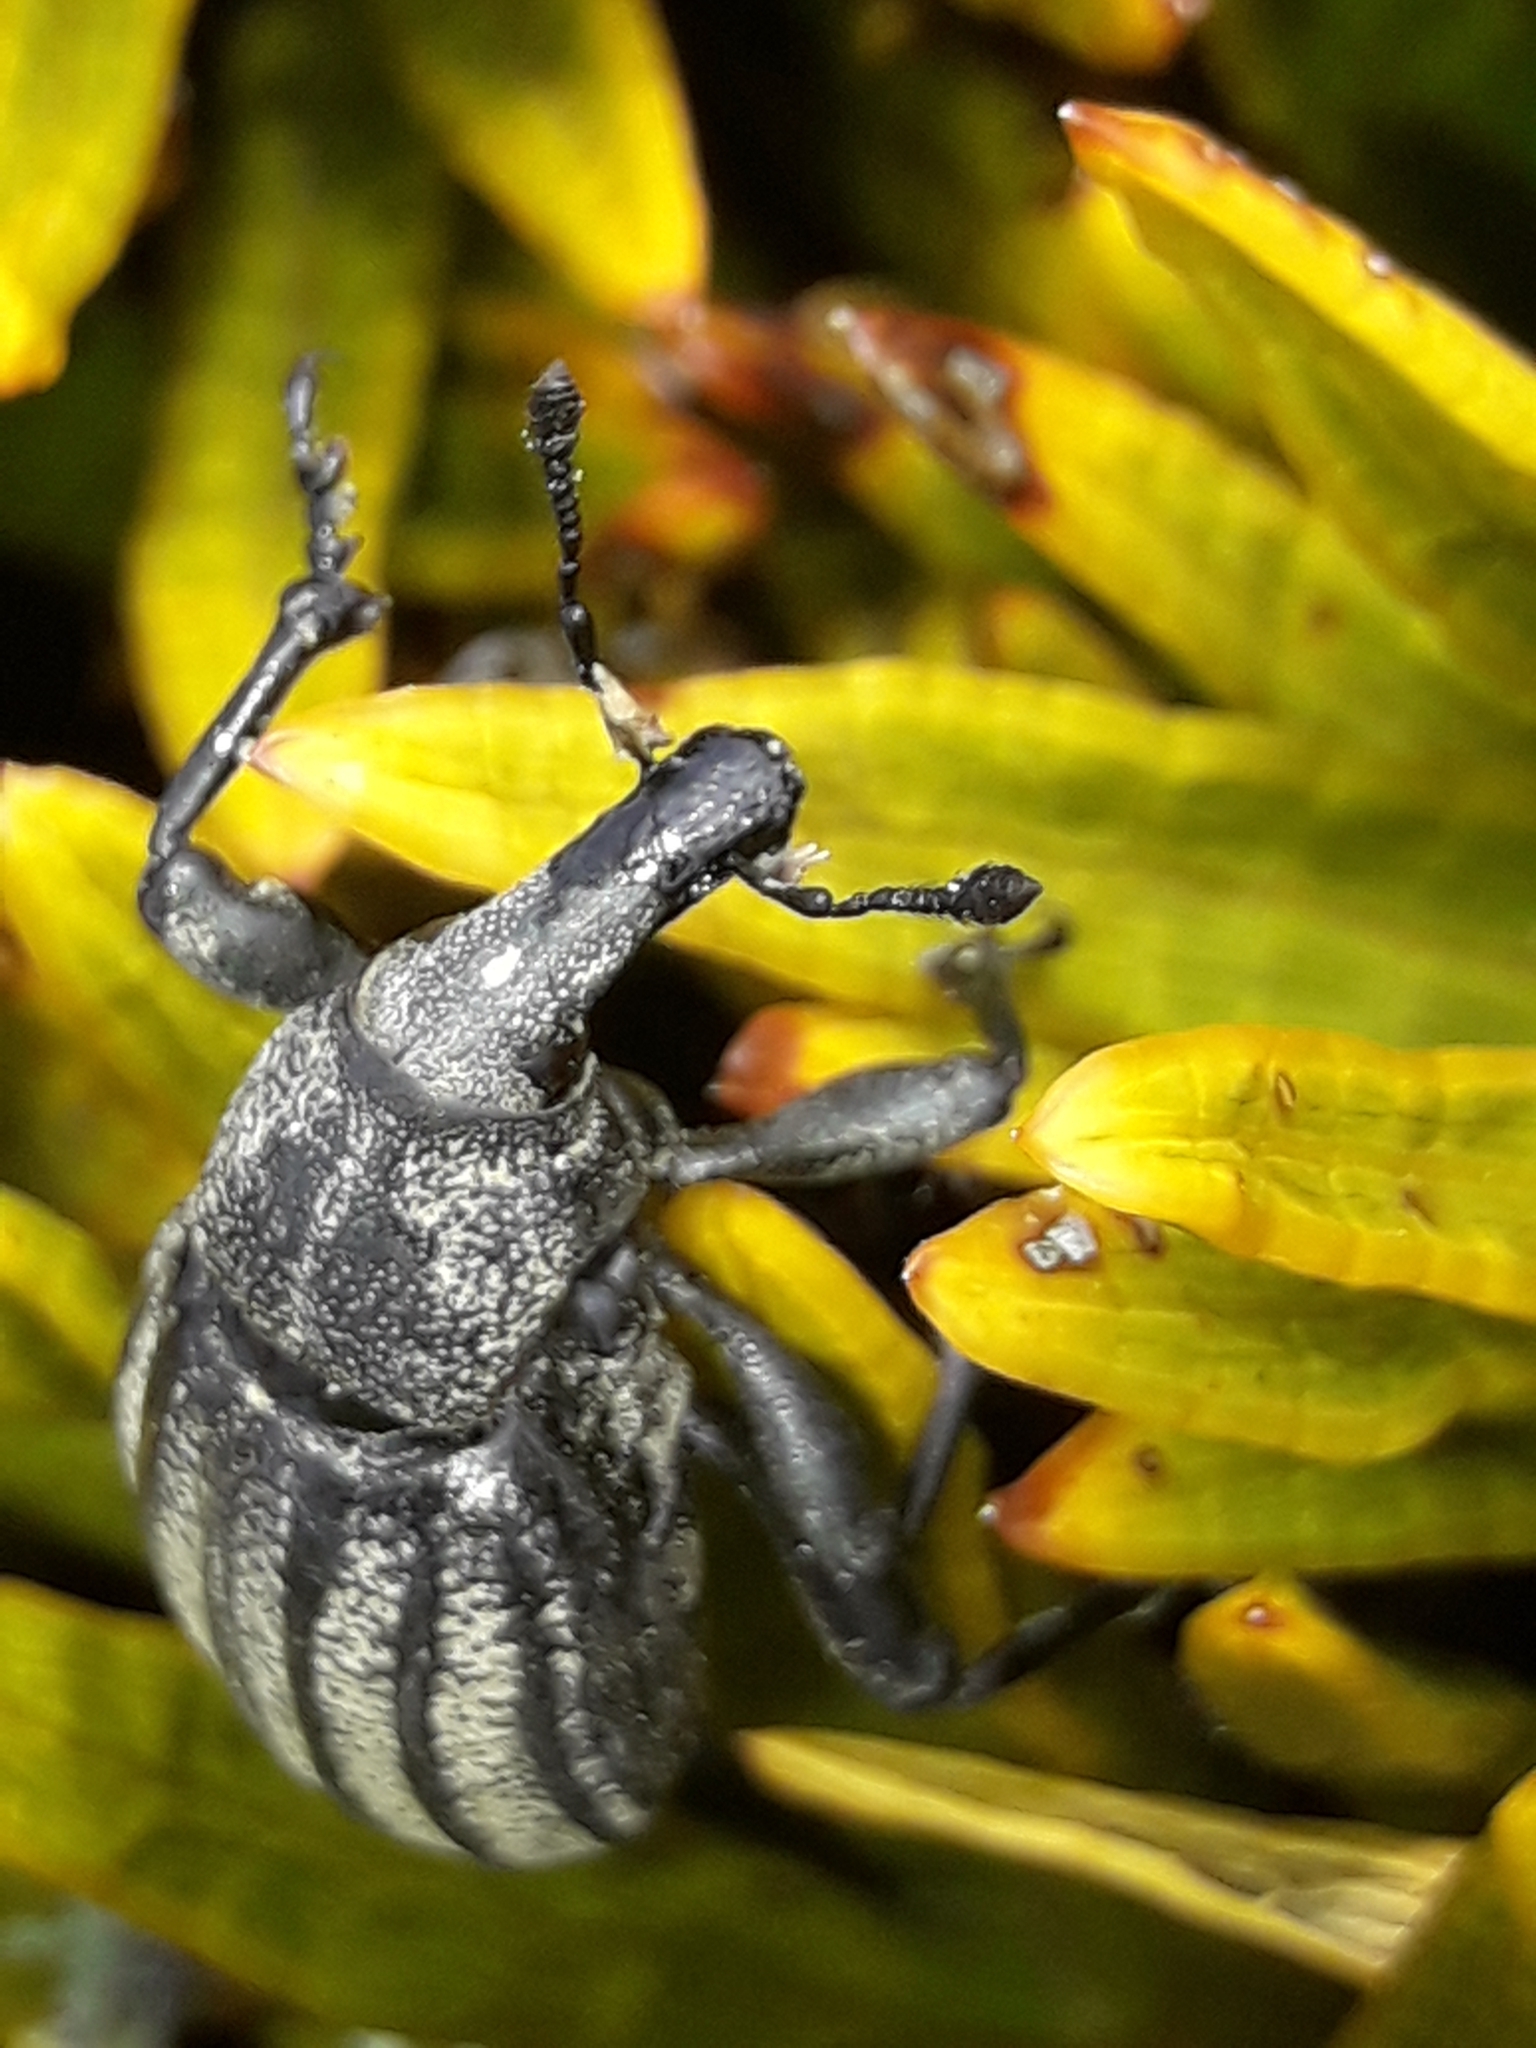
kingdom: Animalia
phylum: Arthropoda
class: Insecta
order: Coleoptera
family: Curculionidae
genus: Lyperobius
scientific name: Lyperobius barbarae
